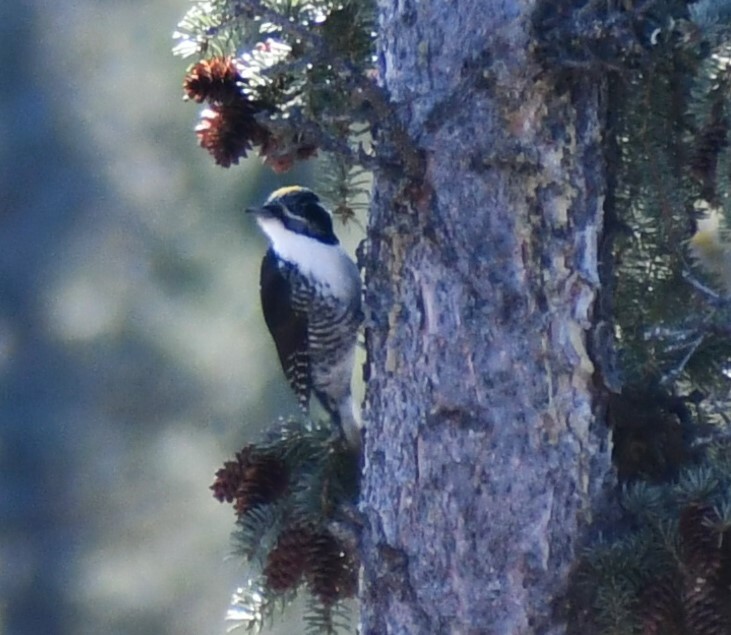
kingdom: Animalia
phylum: Chordata
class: Aves
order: Piciformes
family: Picidae
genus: Picoides
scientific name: Picoides dorsalis
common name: American three-toed woodpecker
